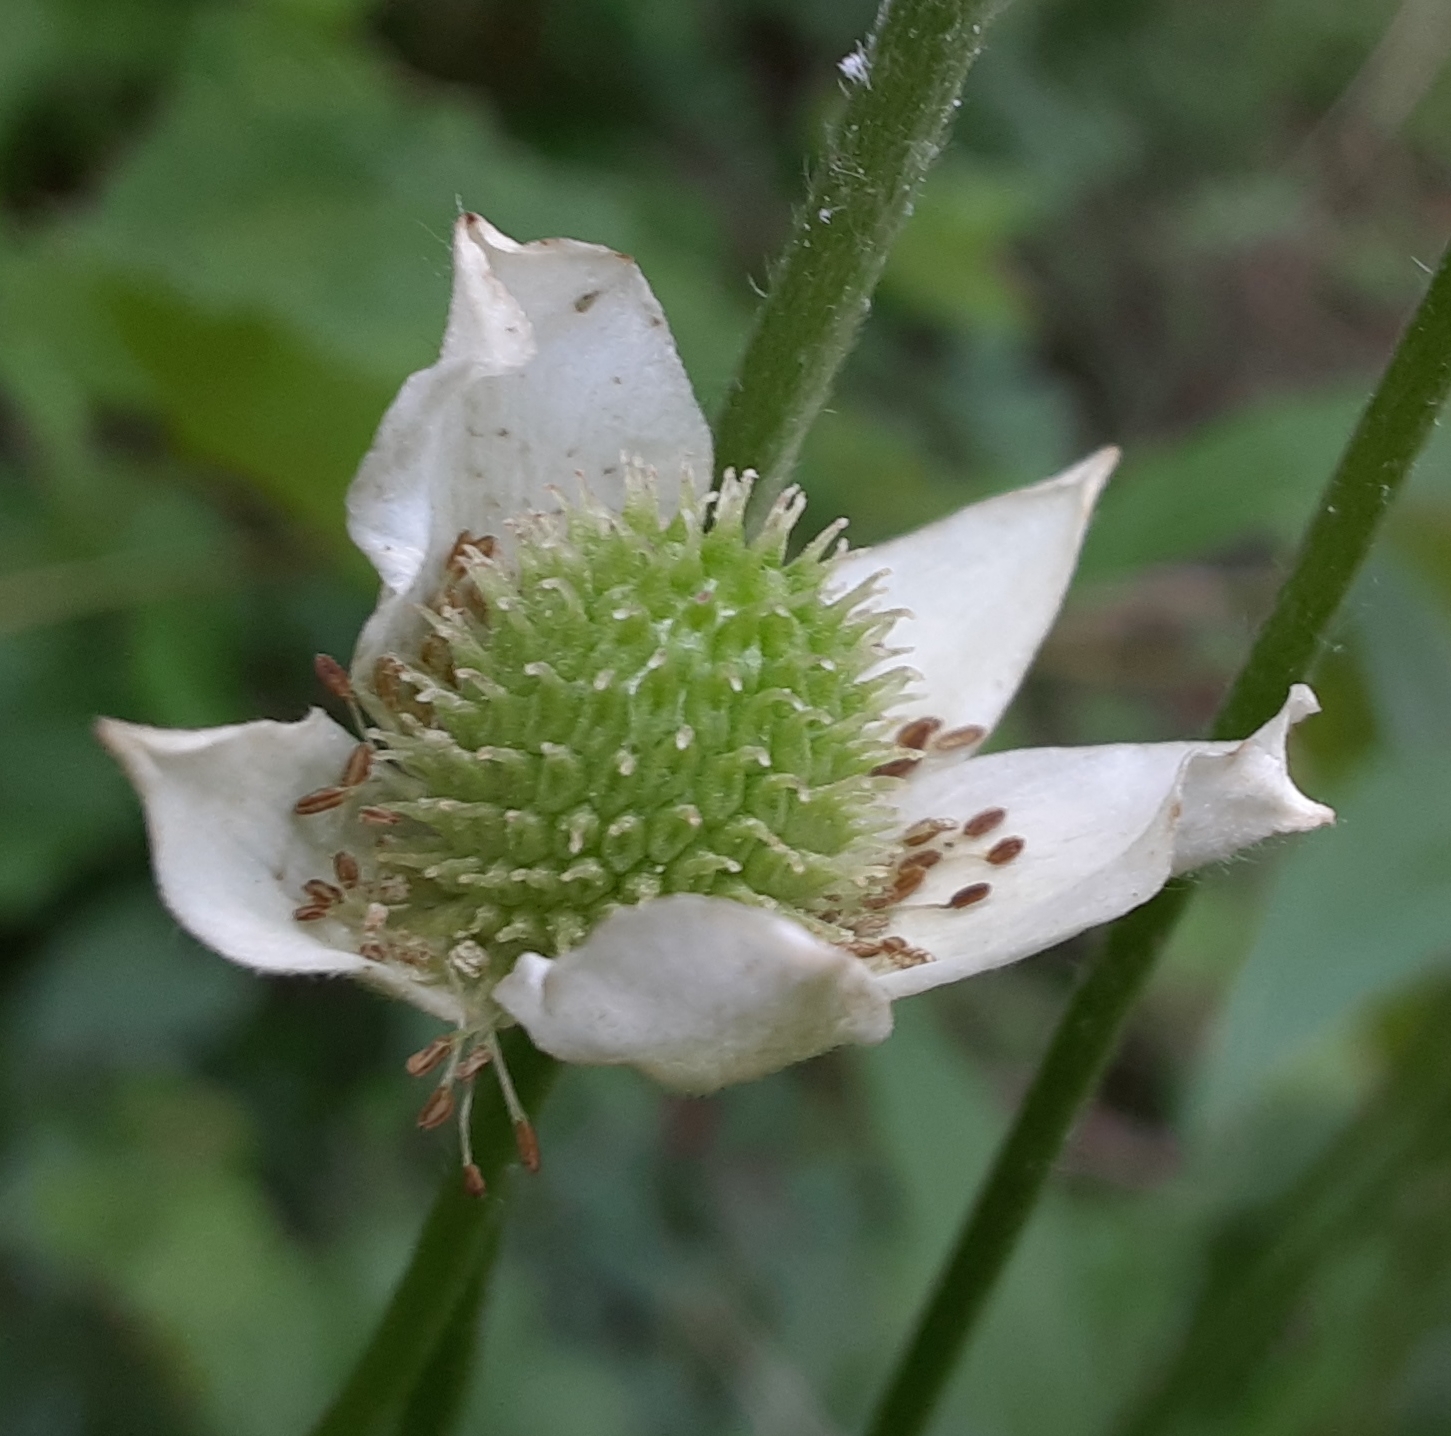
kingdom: Plantae
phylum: Tracheophyta
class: Magnoliopsida
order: Ranunculales
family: Ranunculaceae
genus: Anemone
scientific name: Anemone virginiana
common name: Tall anemone
